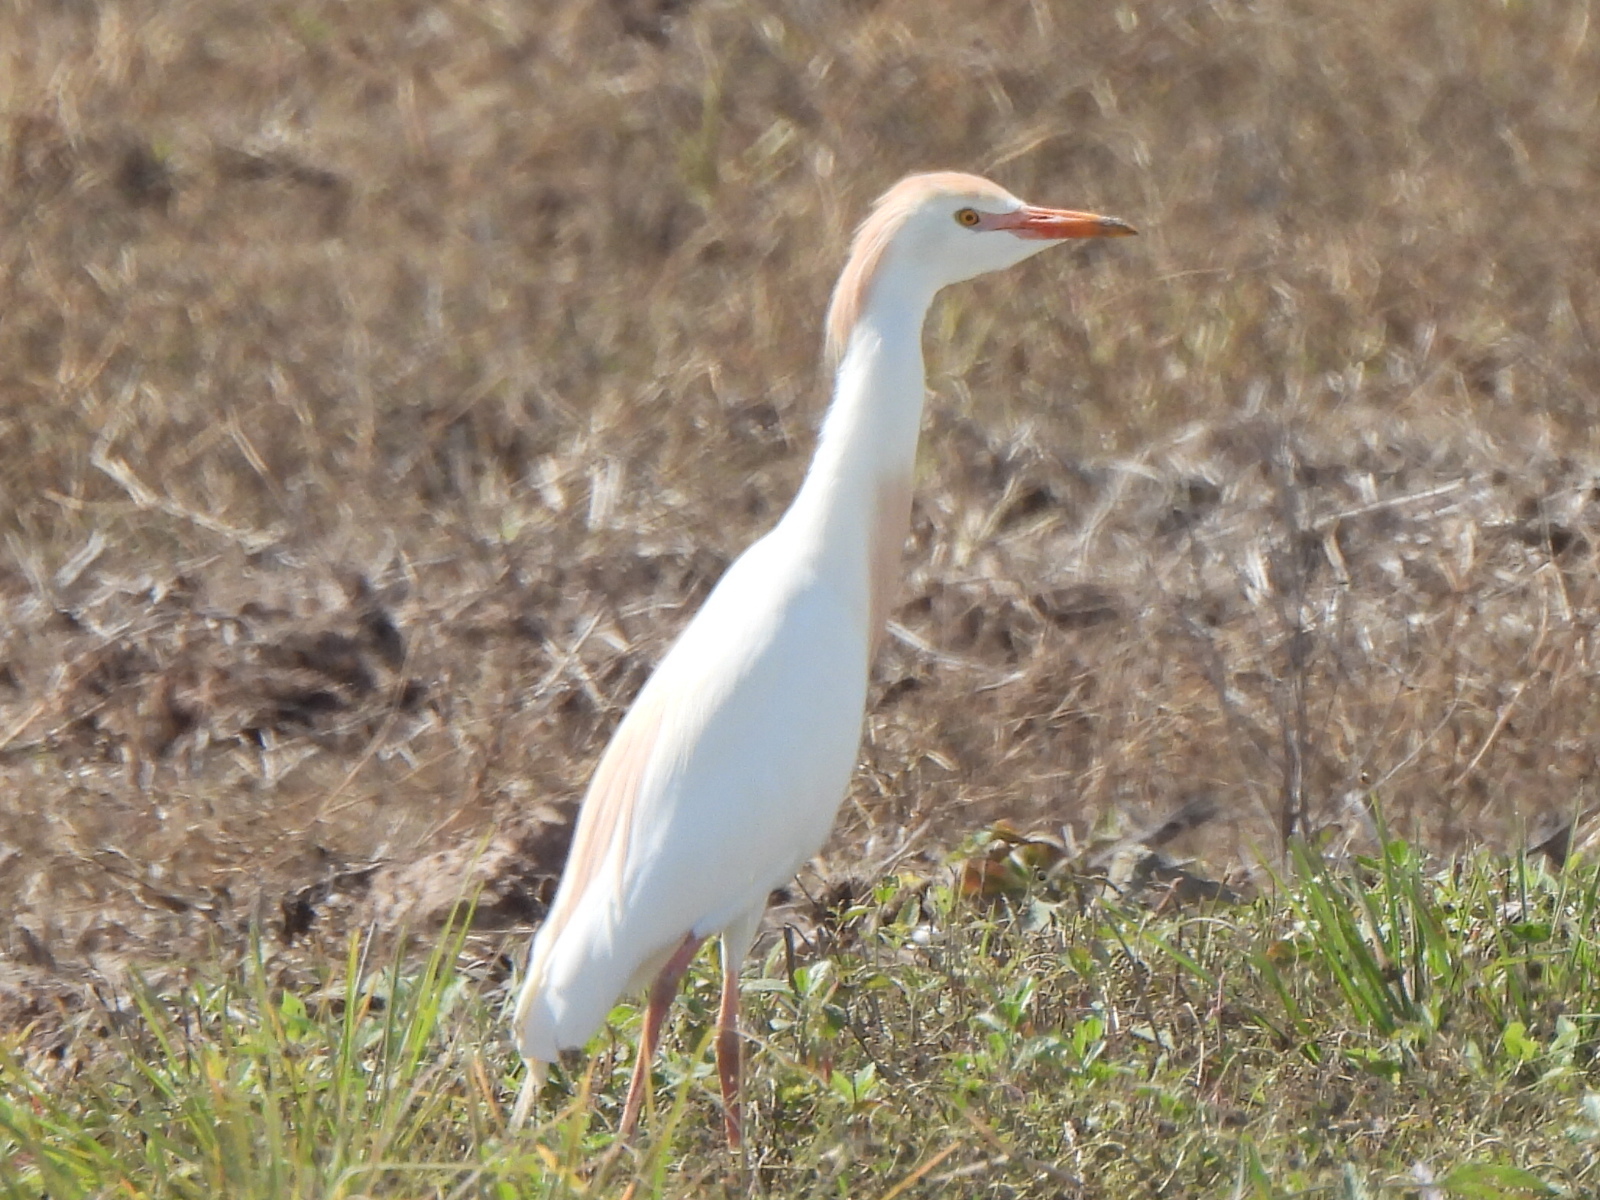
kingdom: Animalia
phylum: Chordata
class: Aves
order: Pelecaniformes
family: Ardeidae
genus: Bubulcus
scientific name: Bubulcus ibis
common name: Cattle egret
